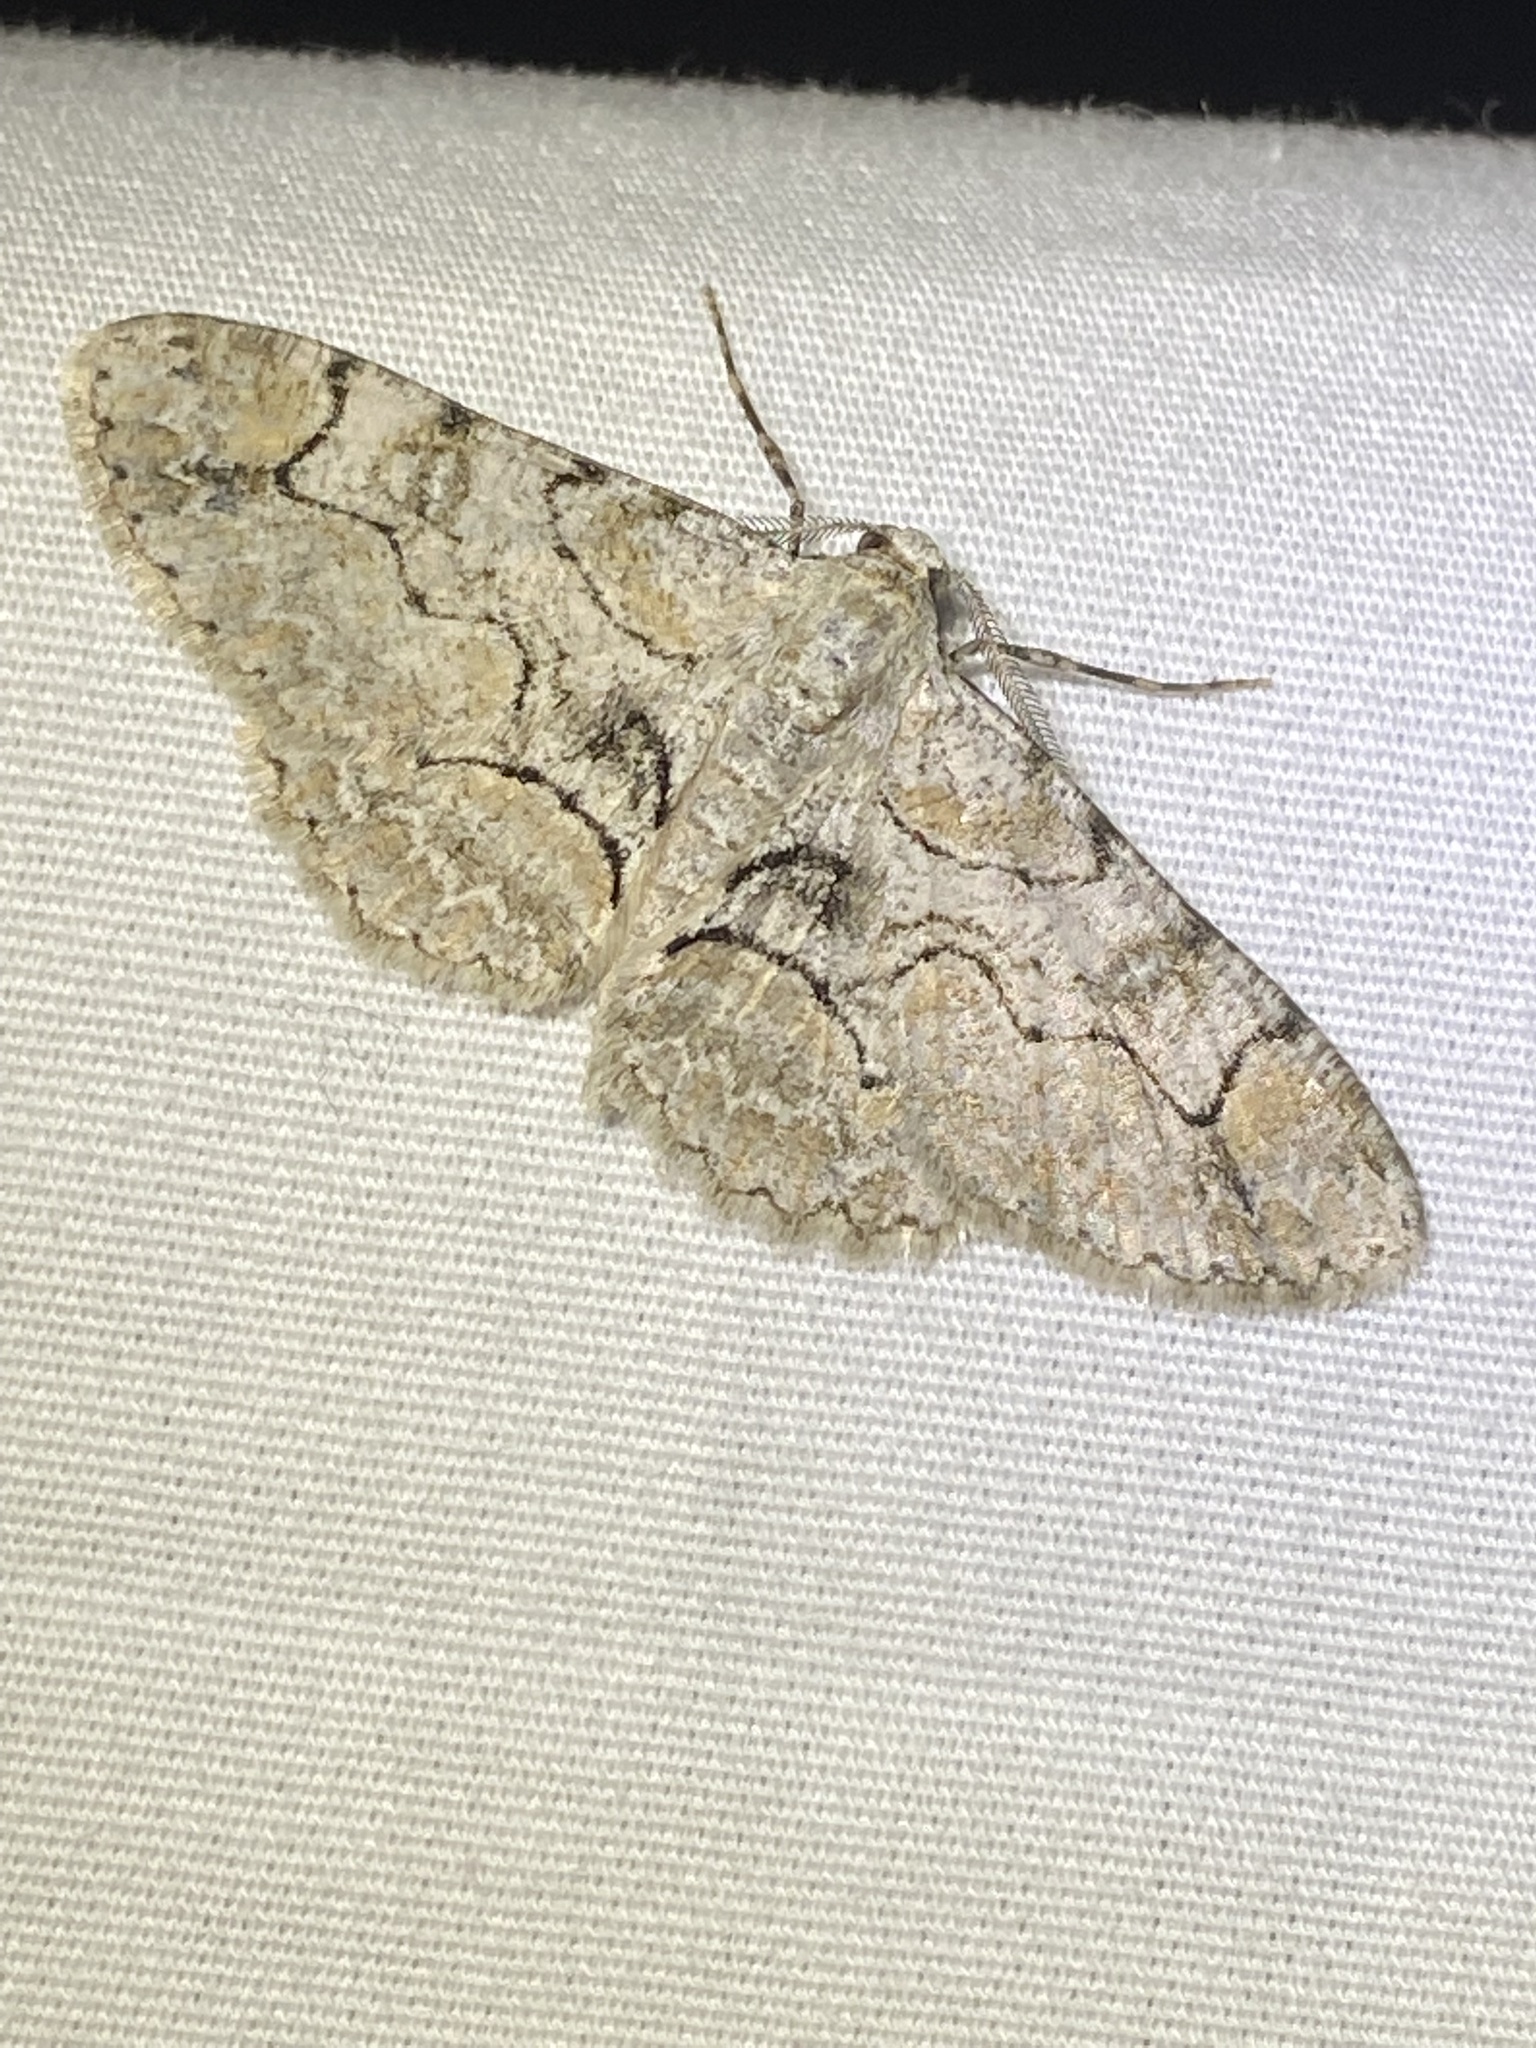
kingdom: Animalia
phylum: Arthropoda
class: Insecta
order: Lepidoptera
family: Geometridae
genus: Iridopsis
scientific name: Iridopsis larvaria
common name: Bent-line gray
